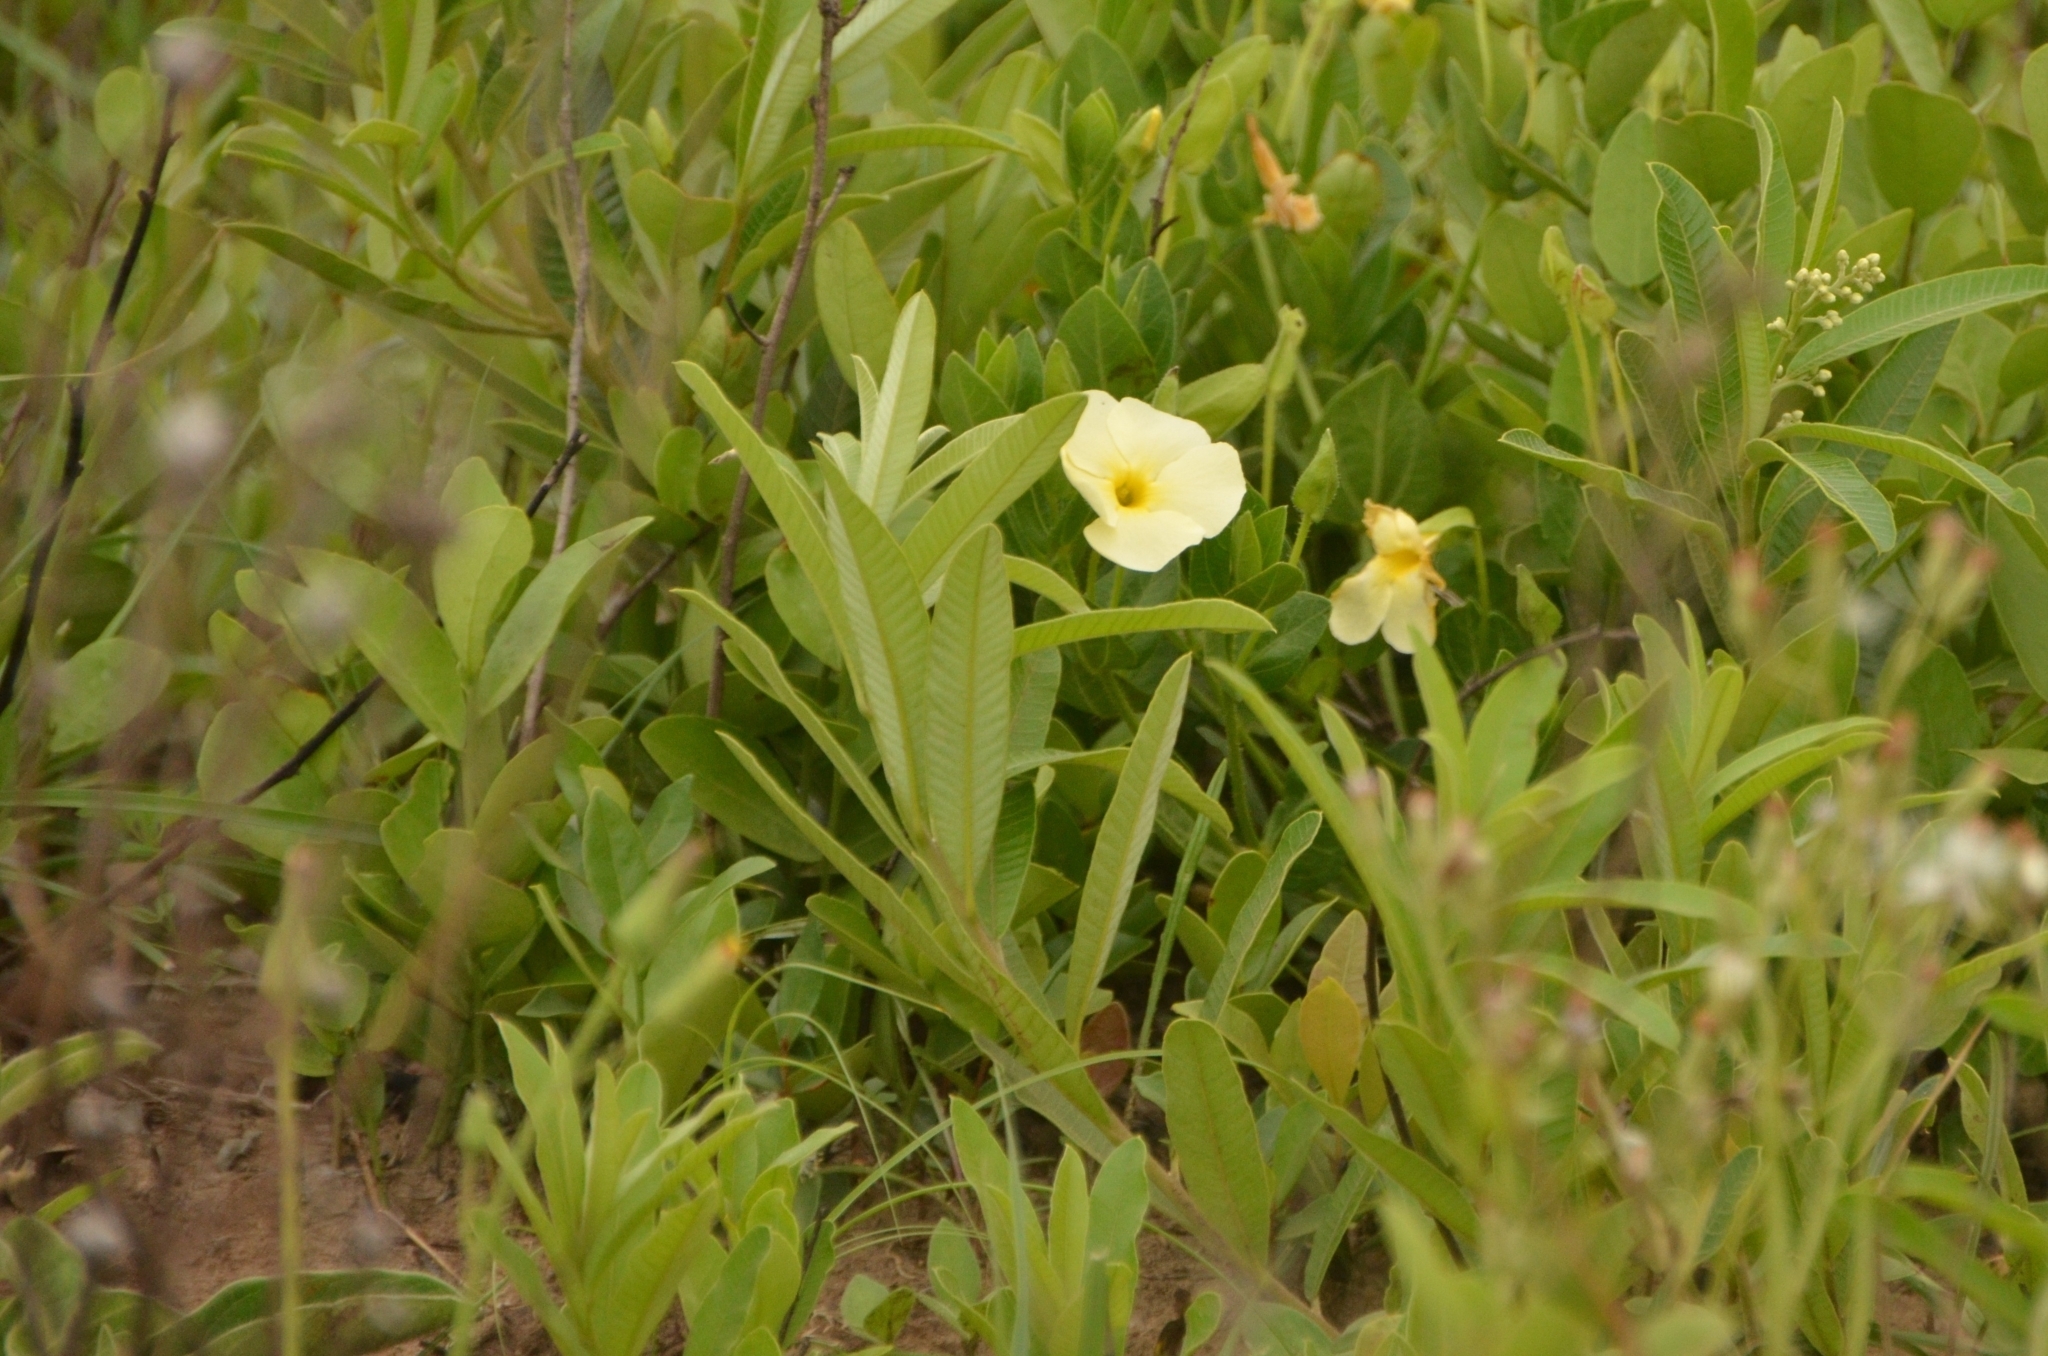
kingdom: Plantae
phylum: Tracheophyta
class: Magnoliopsida
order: Lamiales
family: Acanthaceae
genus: Thunbergia
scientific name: Thunbergia atriplicifolia
